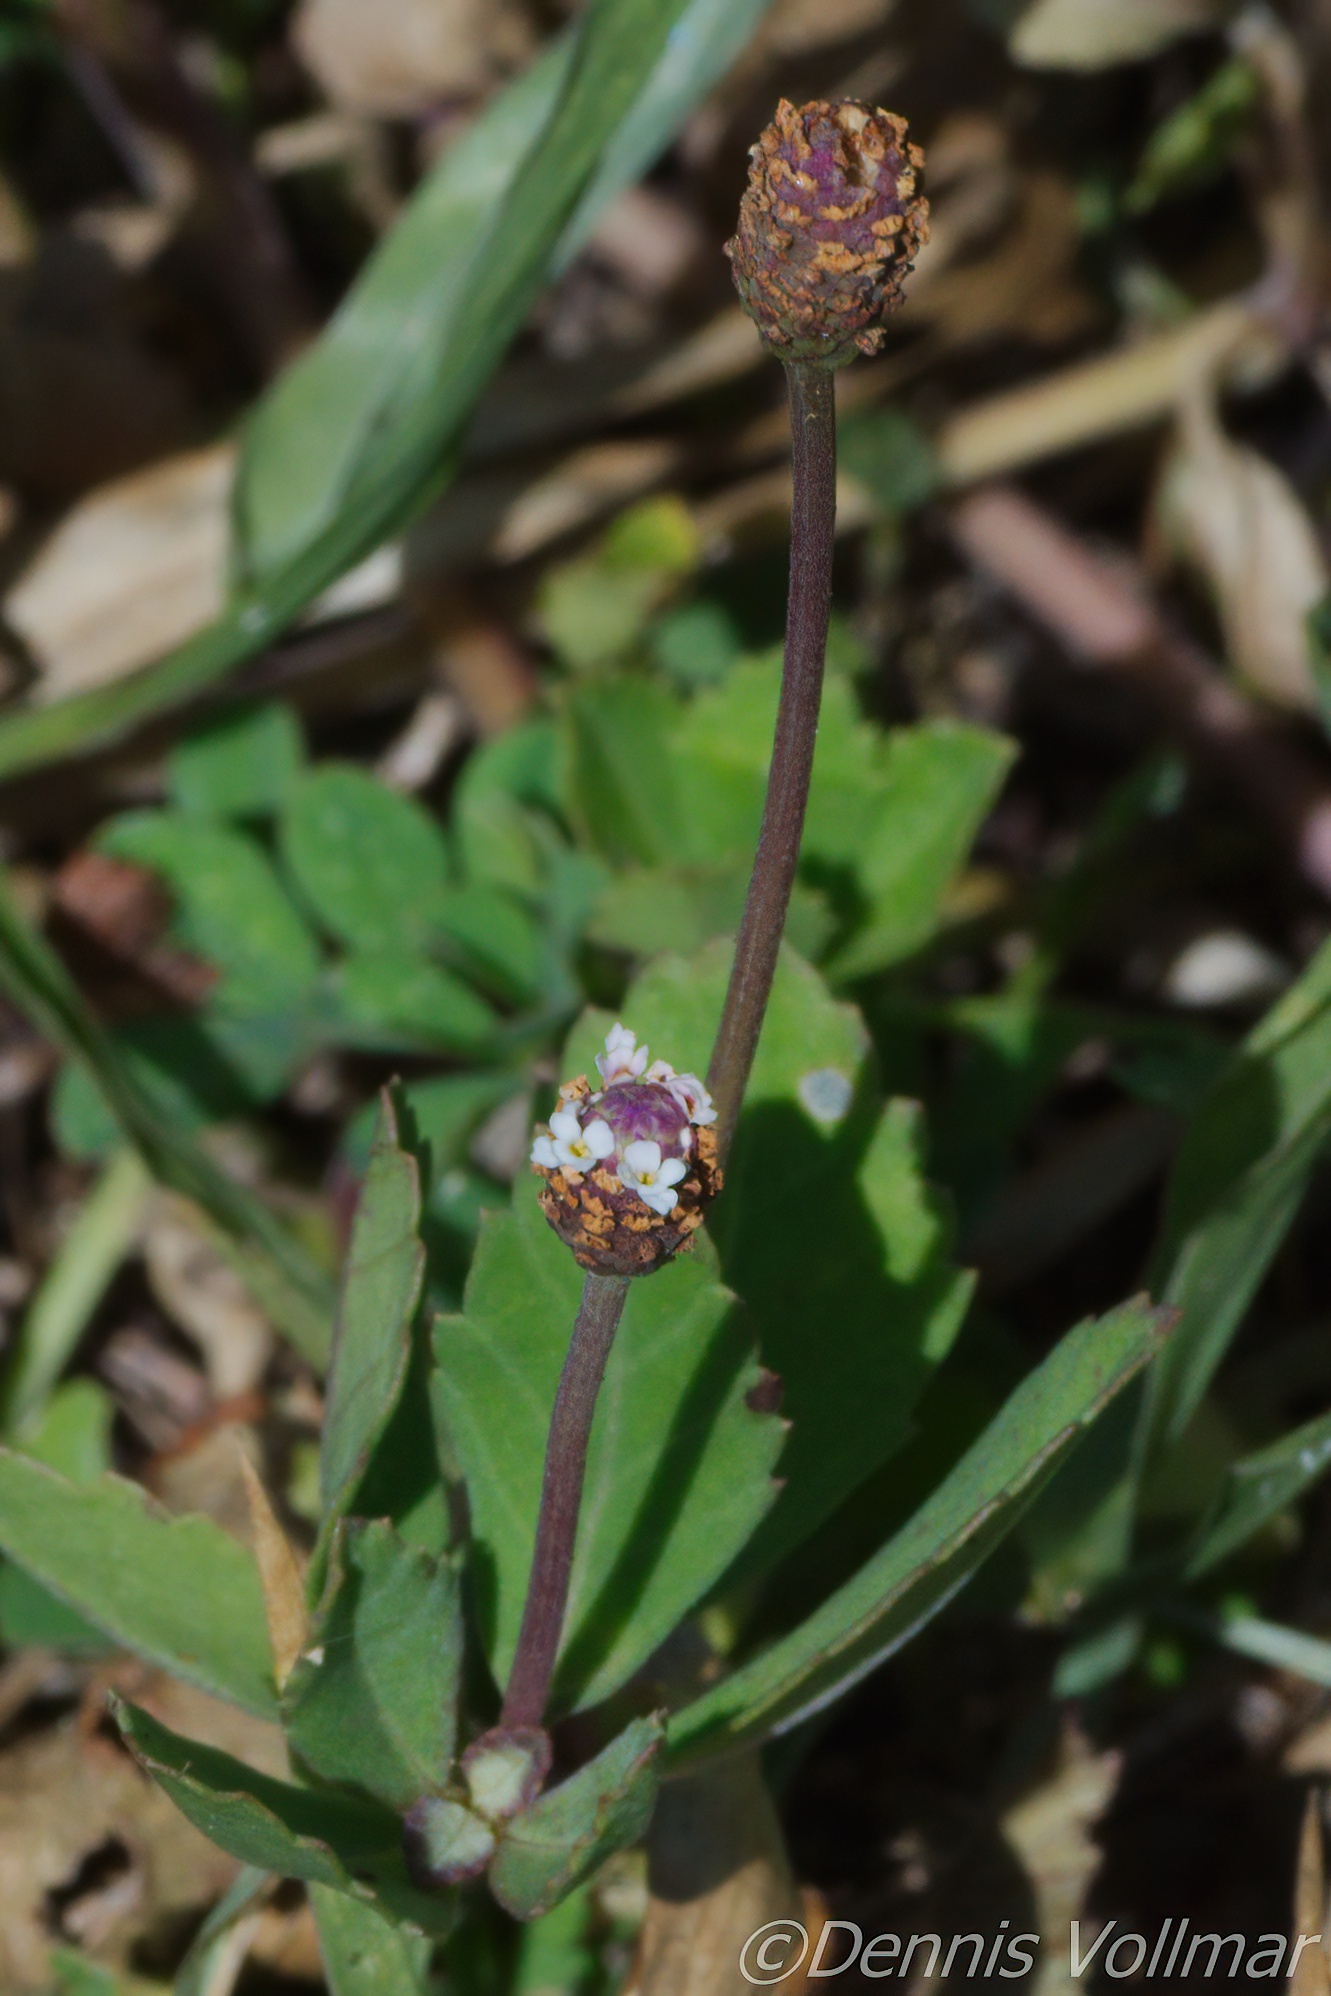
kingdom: Plantae
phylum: Tracheophyta
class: Magnoliopsida
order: Lamiales
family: Verbenaceae
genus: Phyla
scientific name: Phyla nodiflora
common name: Frogfruit
